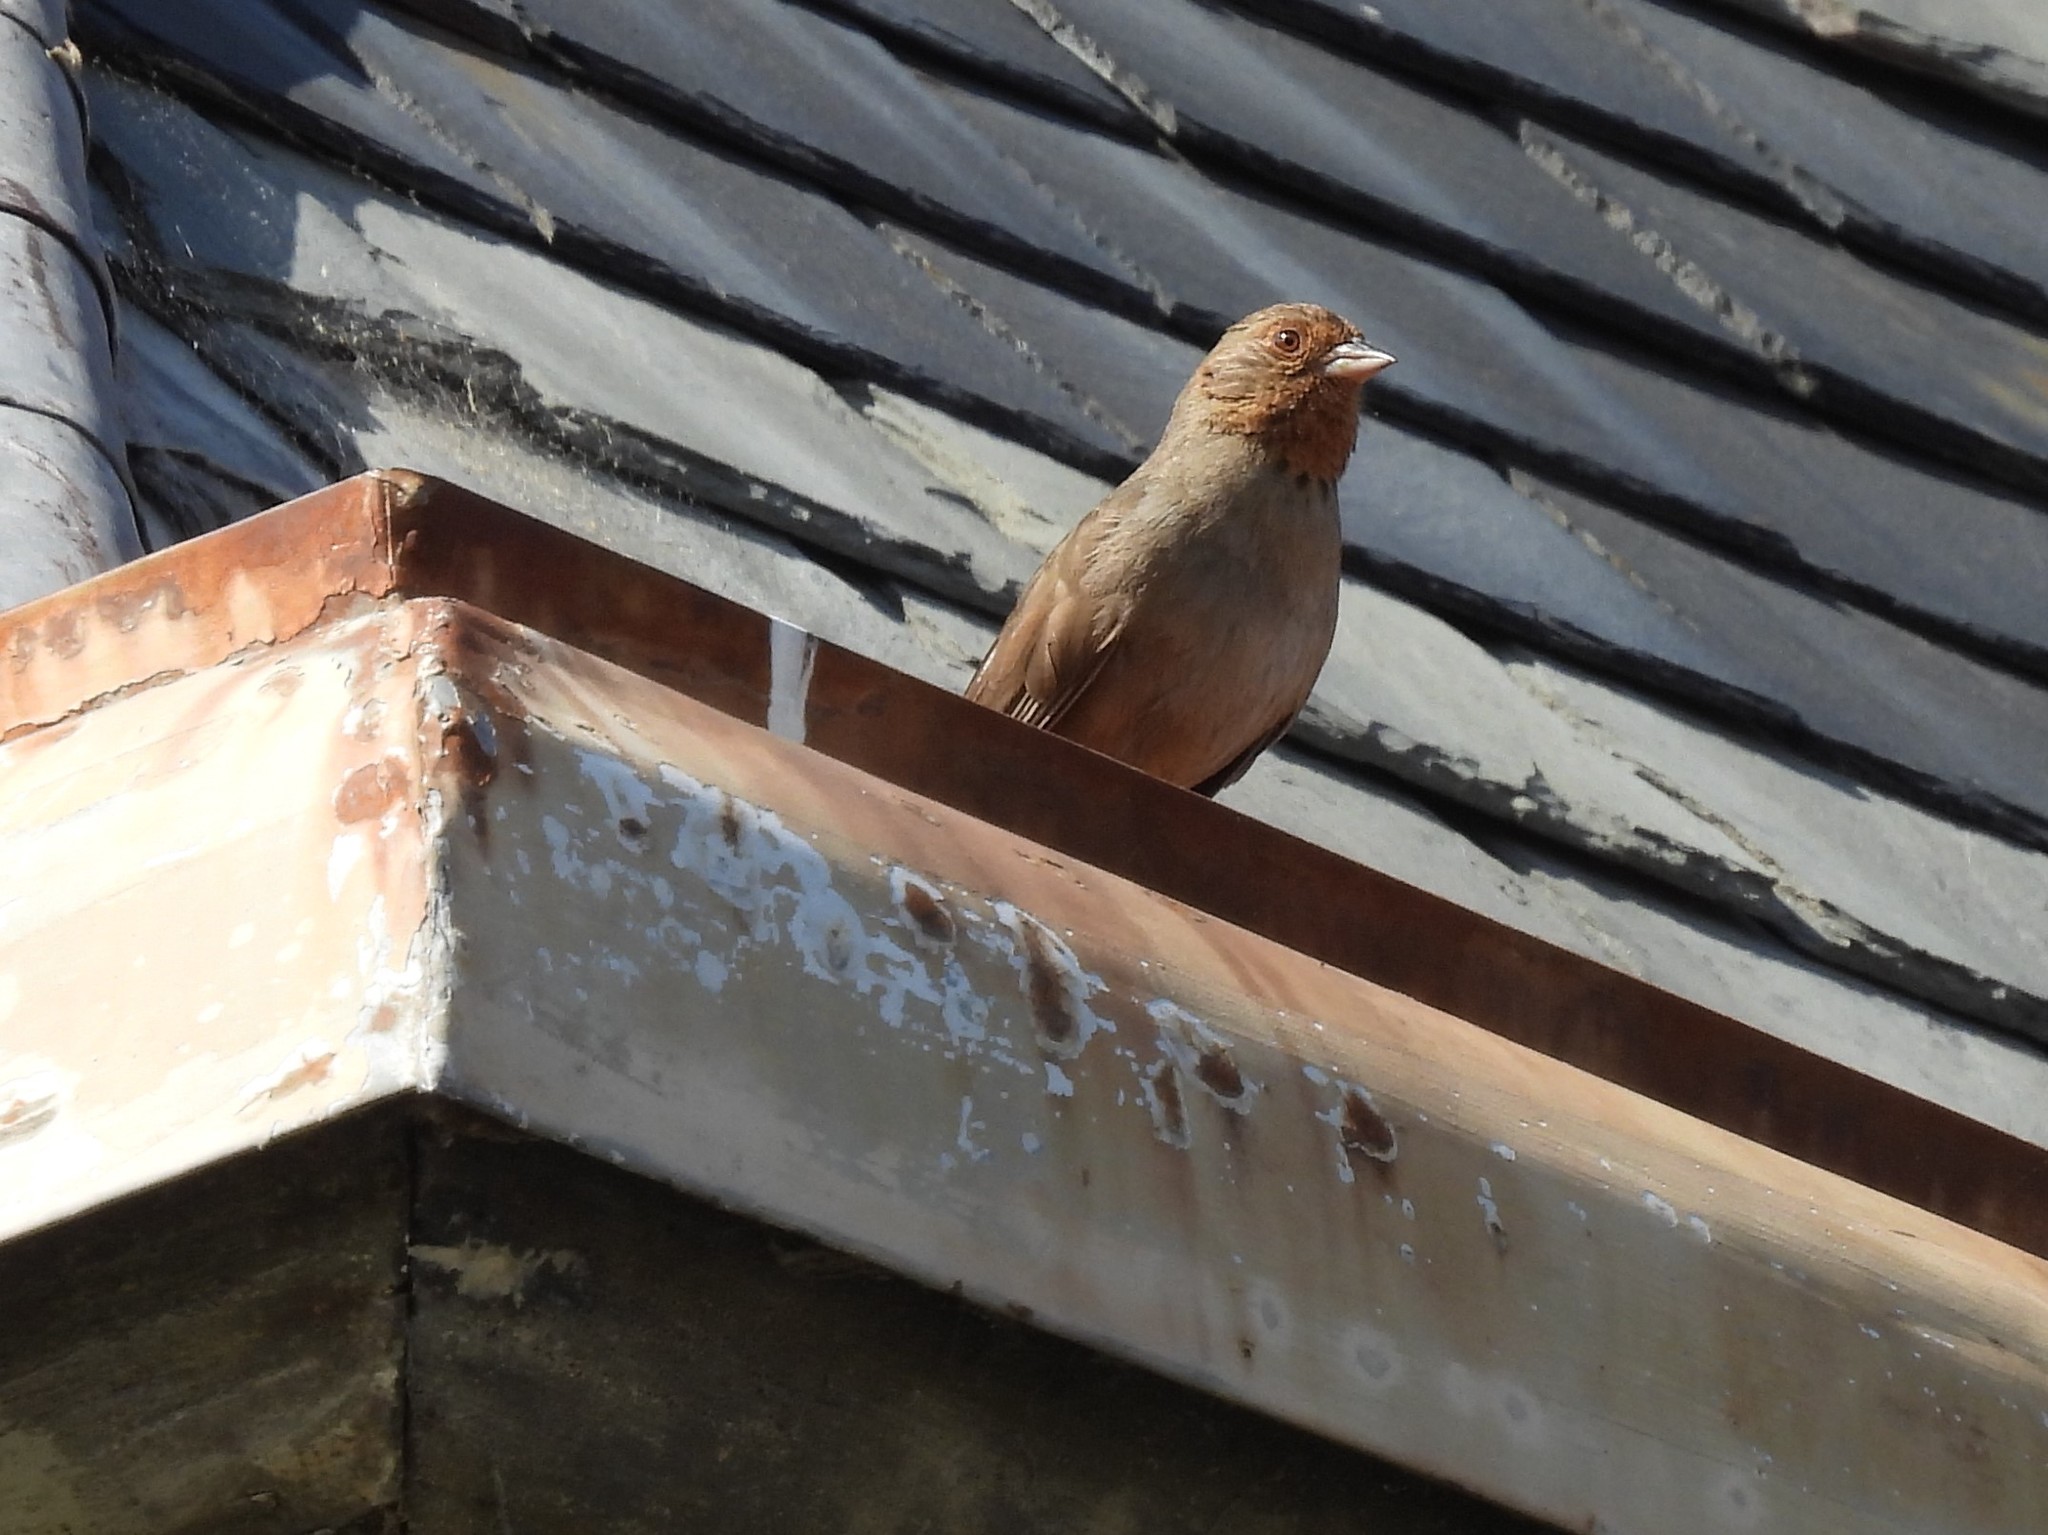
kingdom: Animalia
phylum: Chordata
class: Aves
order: Passeriformes
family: Passerellidae
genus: Melozone
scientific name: Melozone crissalis
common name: California towhee
